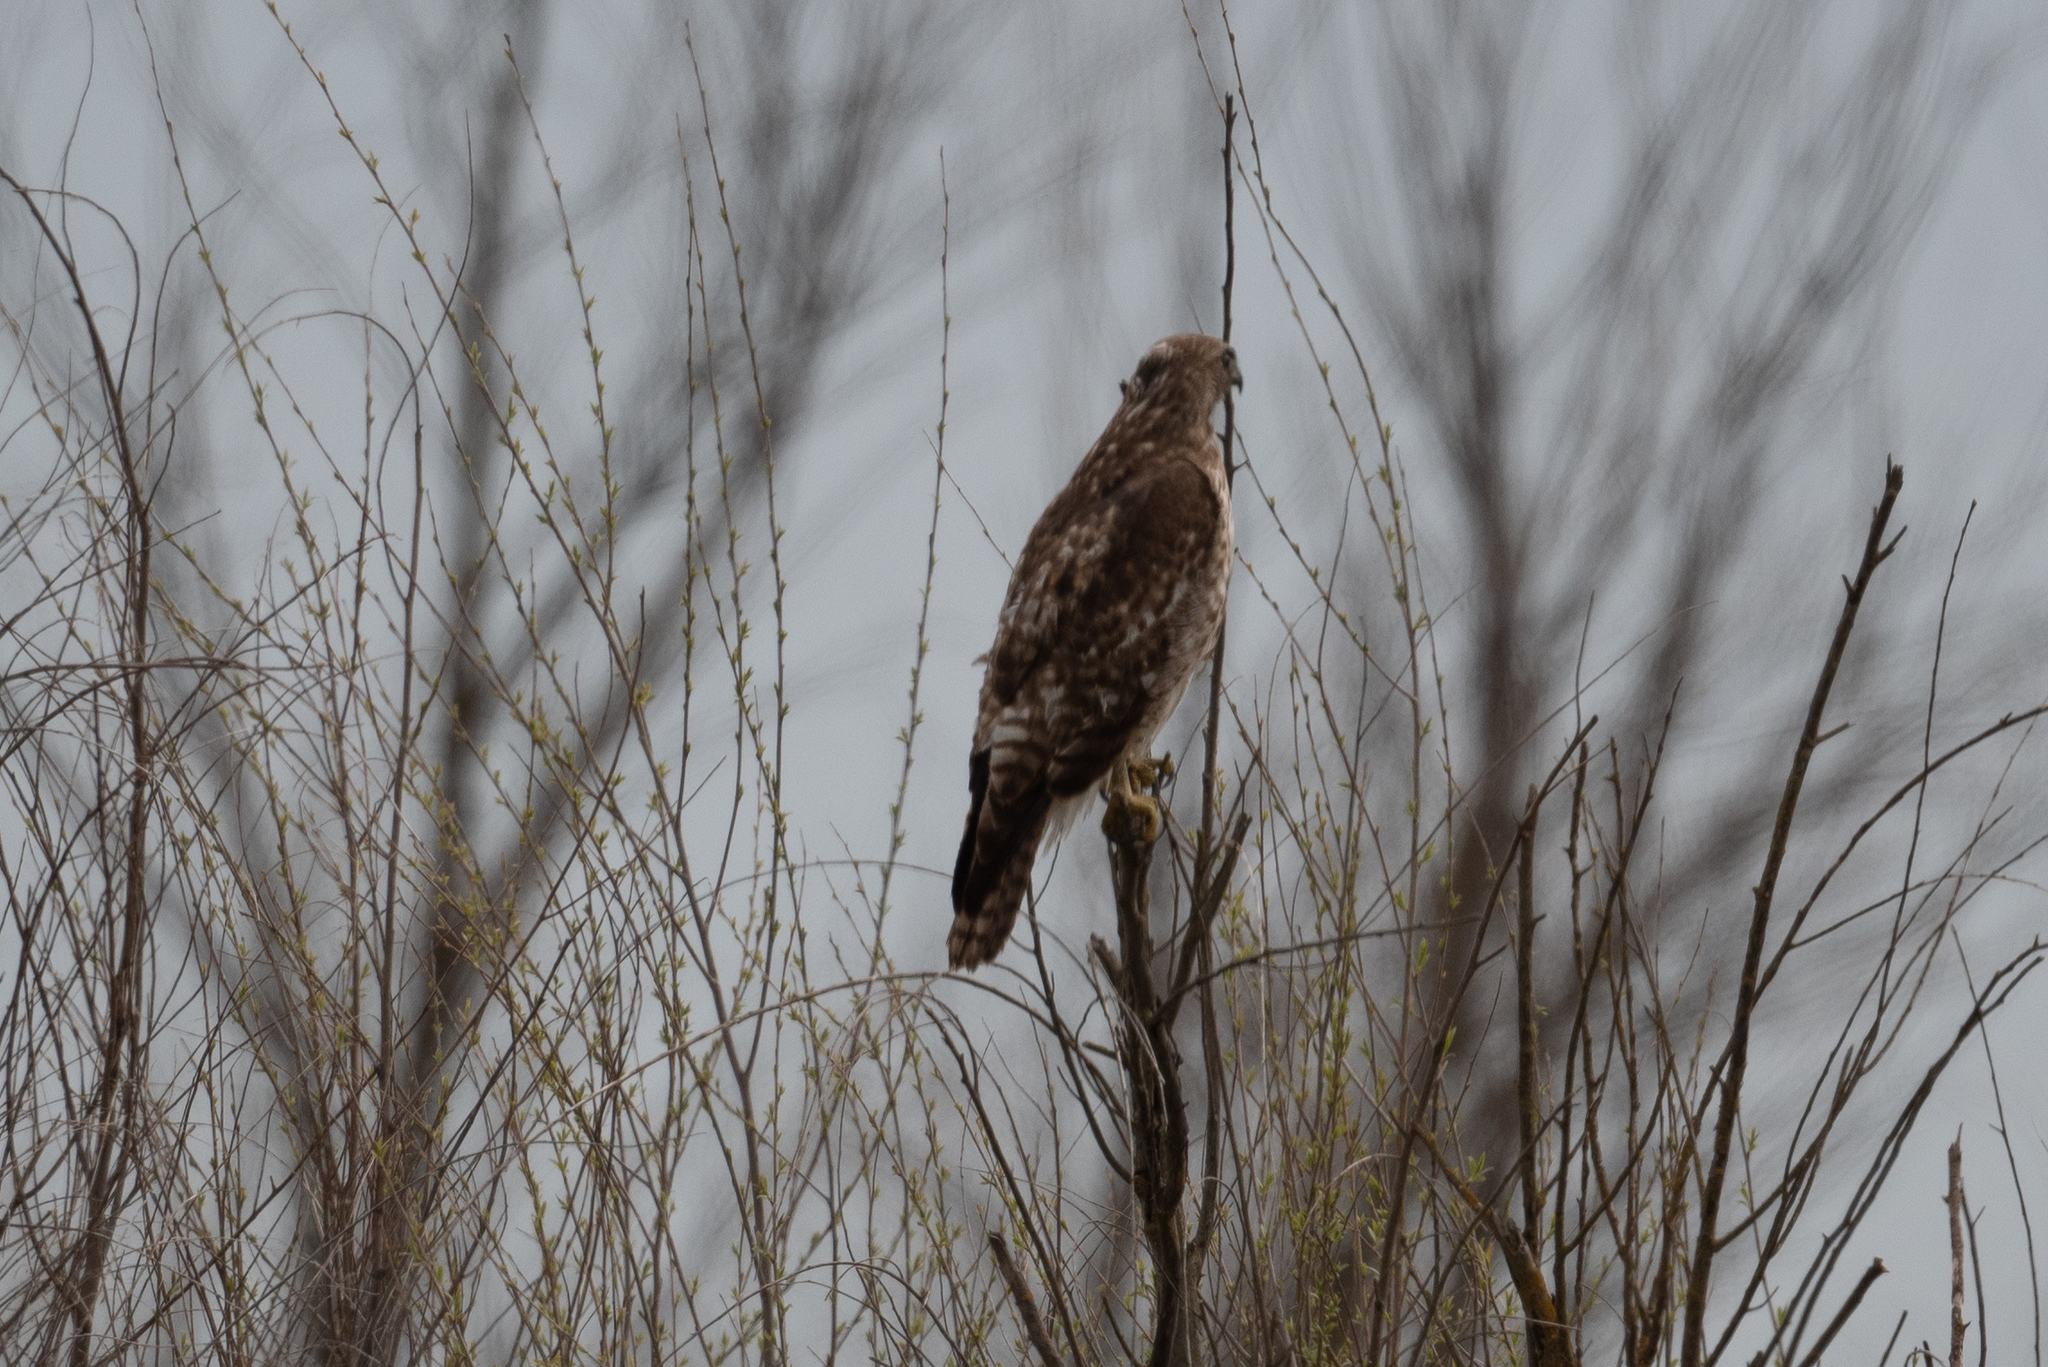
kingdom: Animalia
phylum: Chordata
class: Aves
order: Accipitriformes
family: Accipitridae
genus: Buteo
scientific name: Buteo jamaicensis
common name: Red-tailed hawk
